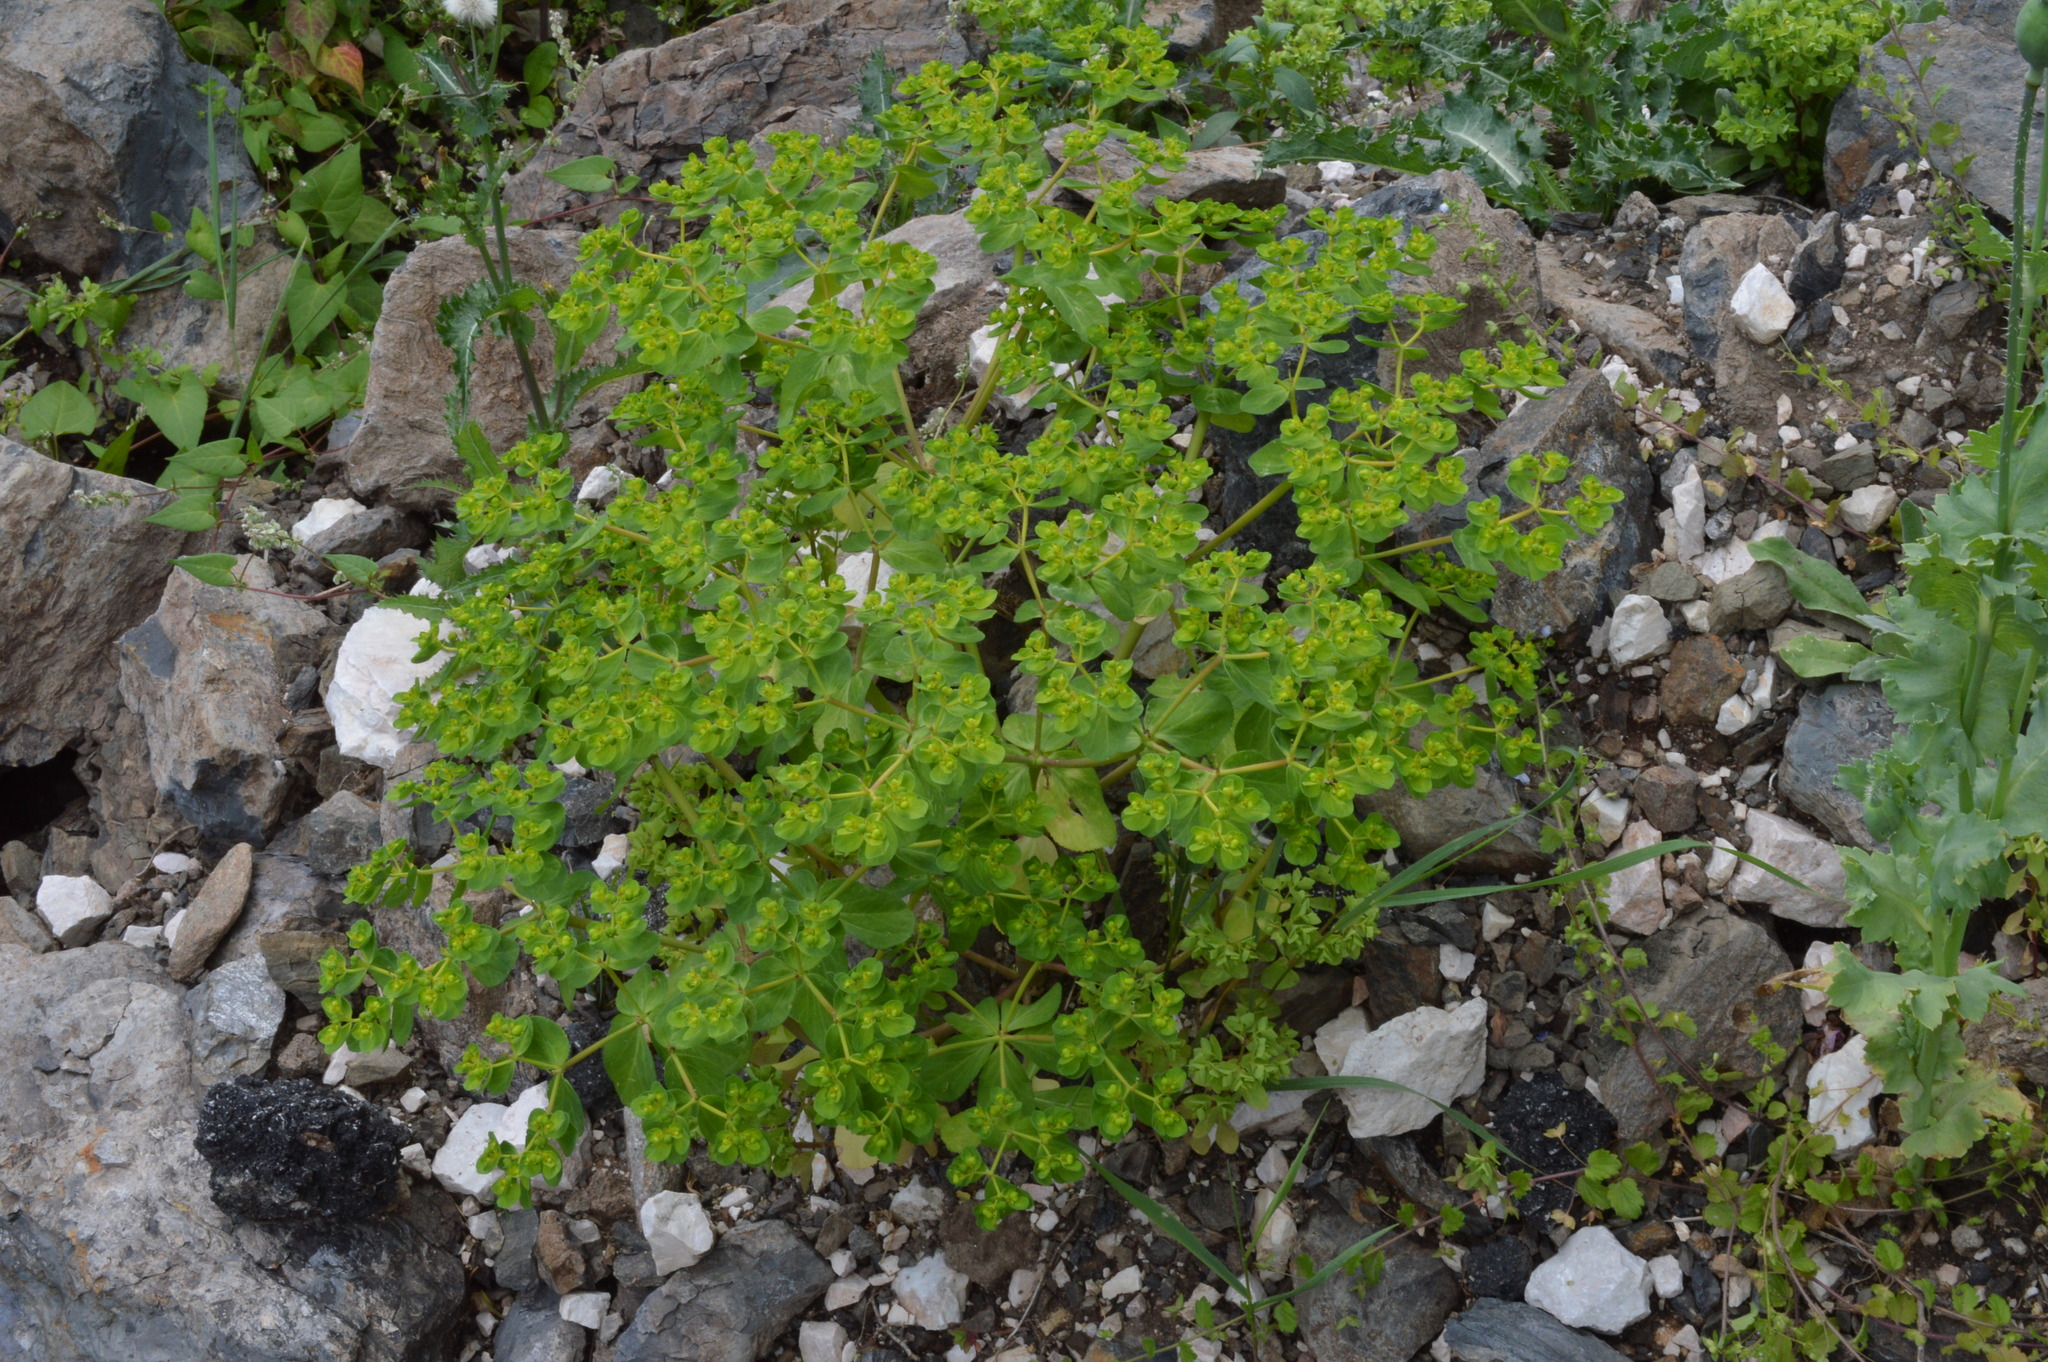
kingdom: Plantae
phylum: Tracheophyta
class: Magnoliopsida
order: Malpighiales
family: Euphorbiaceae
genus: Euphorbia
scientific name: Euphorbia helioscopia
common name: Sun spurge
